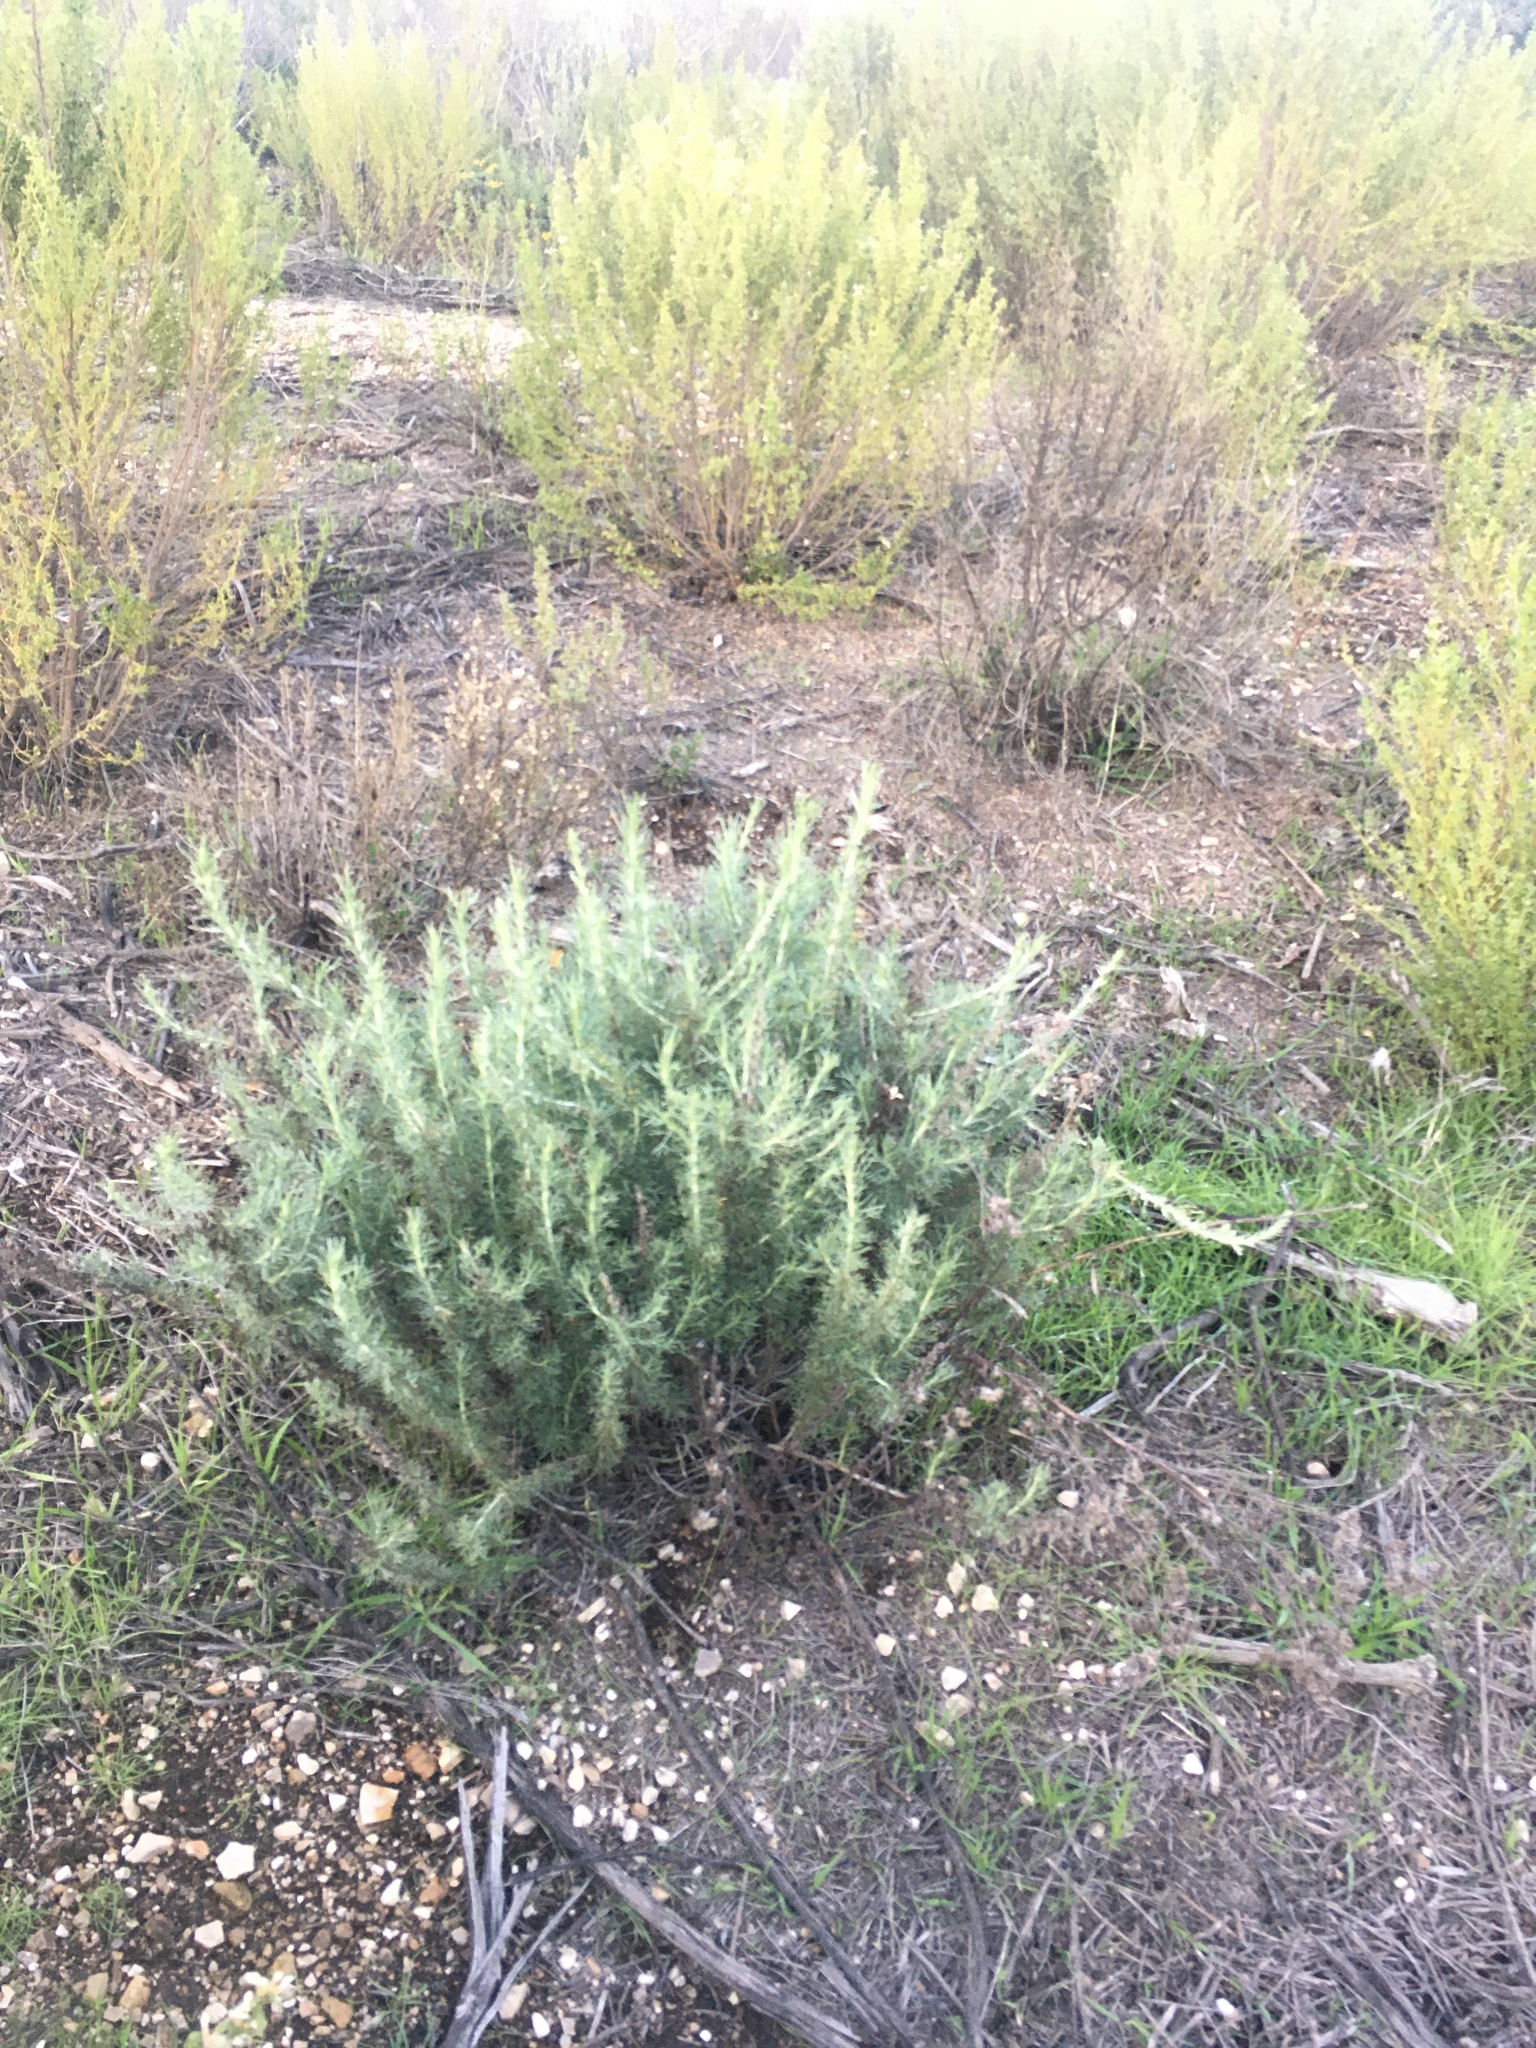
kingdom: Plantae
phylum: Tracheophyta
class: Magnoliopsida
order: Asterales
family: Asteraceae
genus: Artemisia
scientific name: Artemisia californica
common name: California sagebrush
